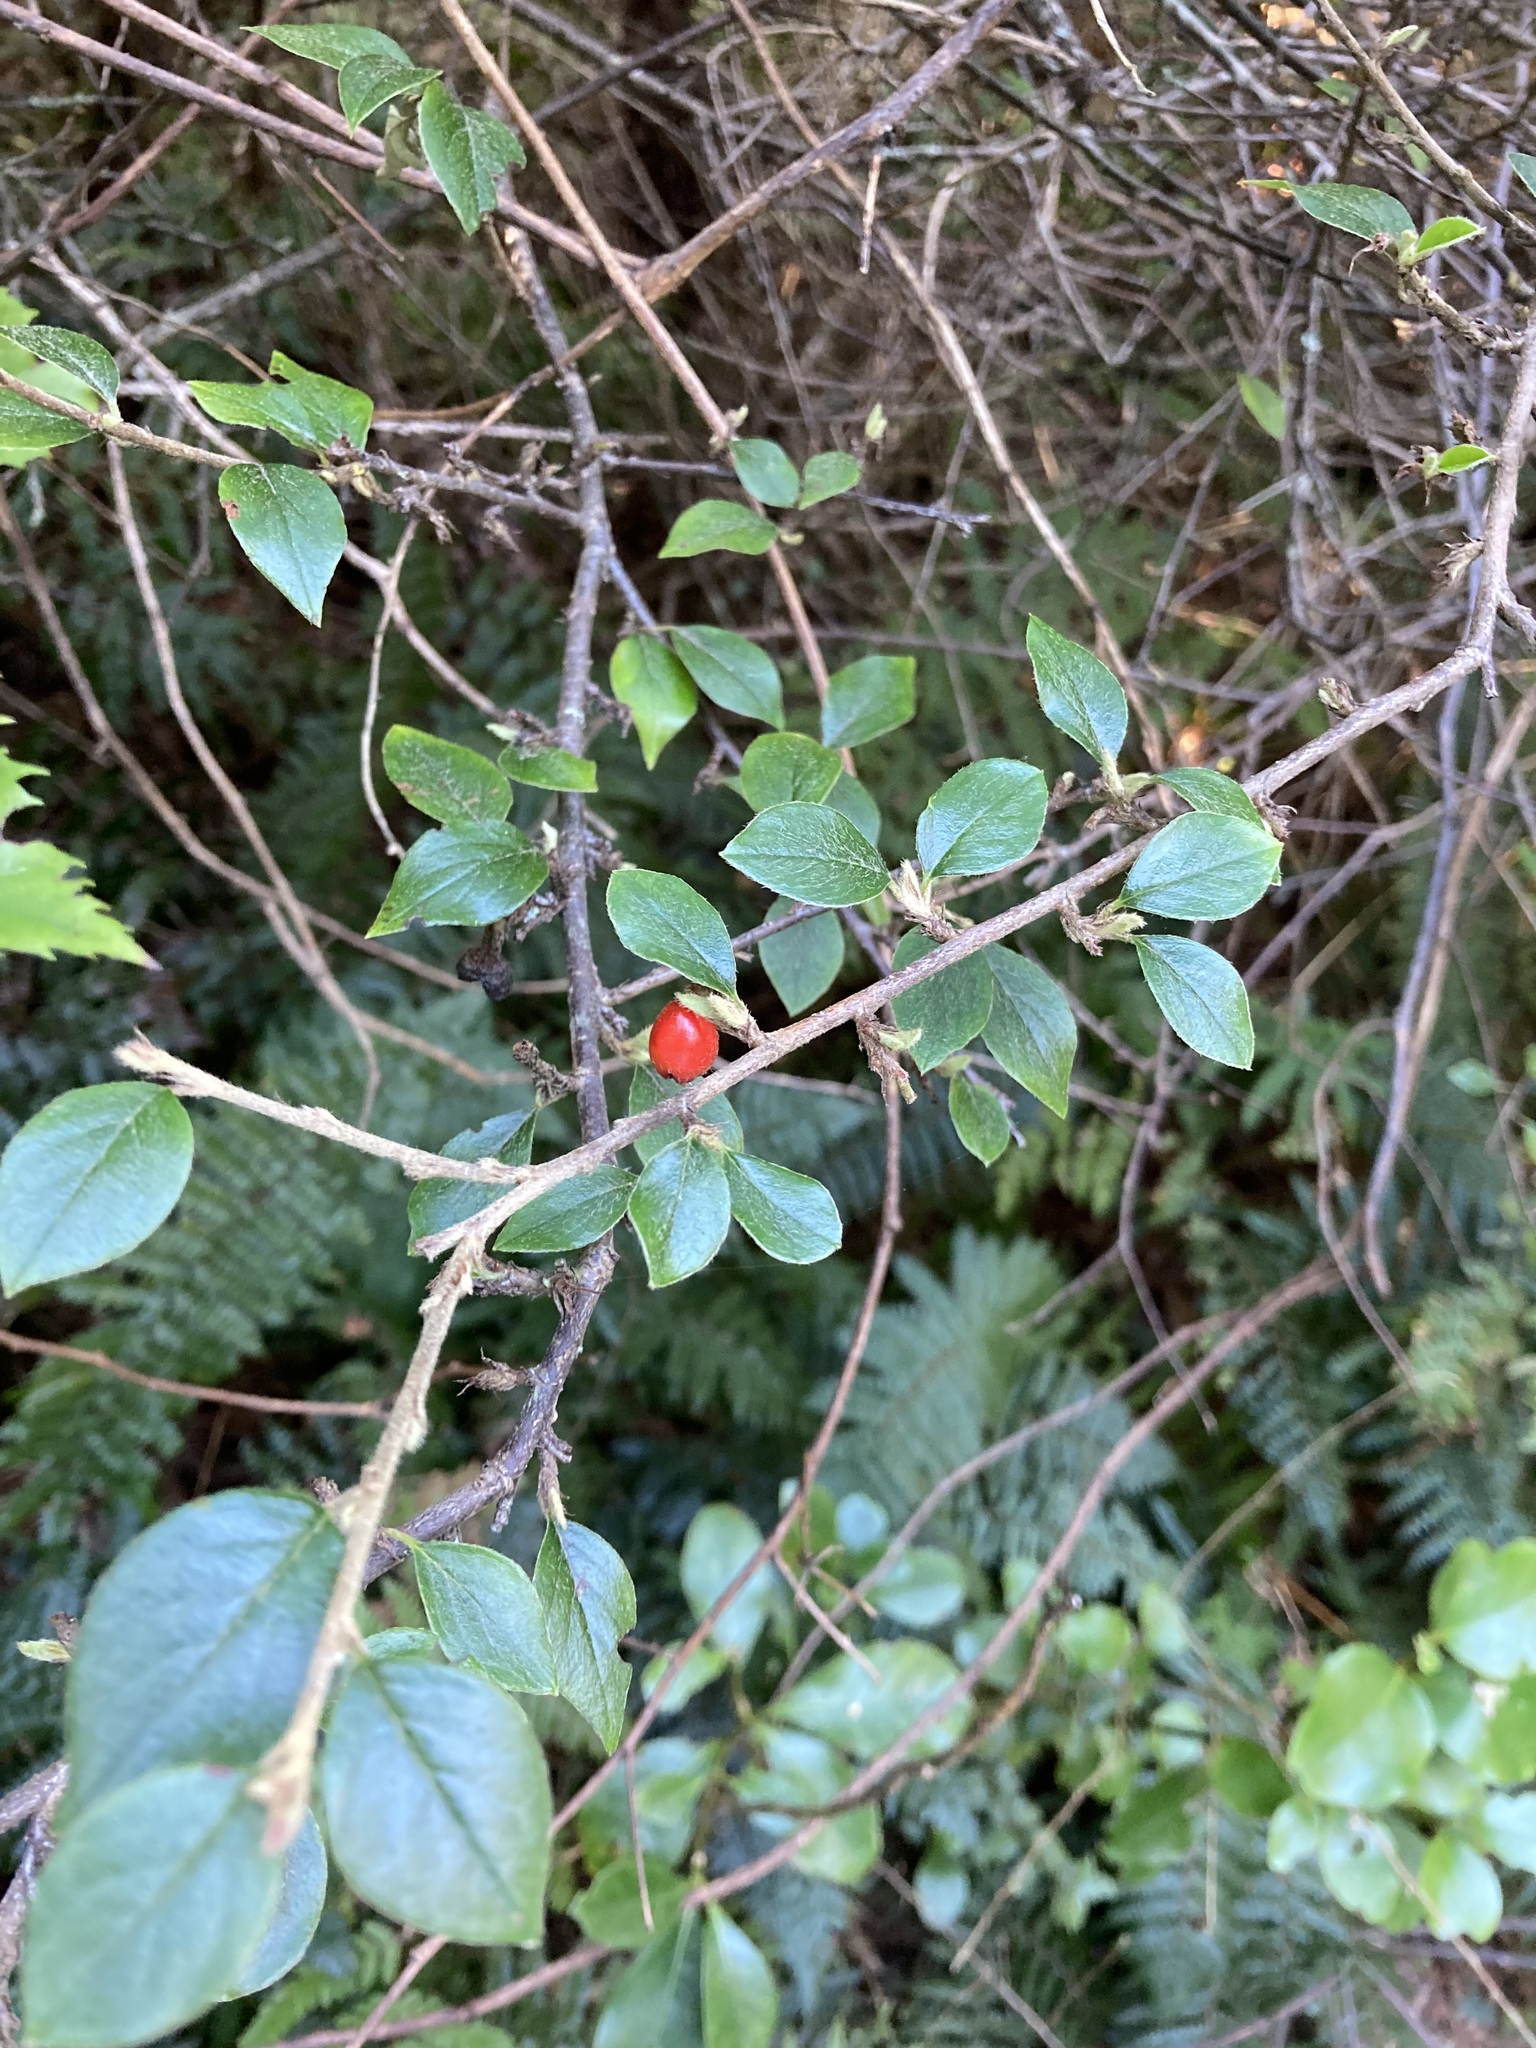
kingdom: Plantae
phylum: Tracheophyta
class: Magnoliopsida
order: Rosales
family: Rosaceae
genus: Cotoneaster
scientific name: Cotoneaster simonsii
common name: Himalayan cotoneaster
